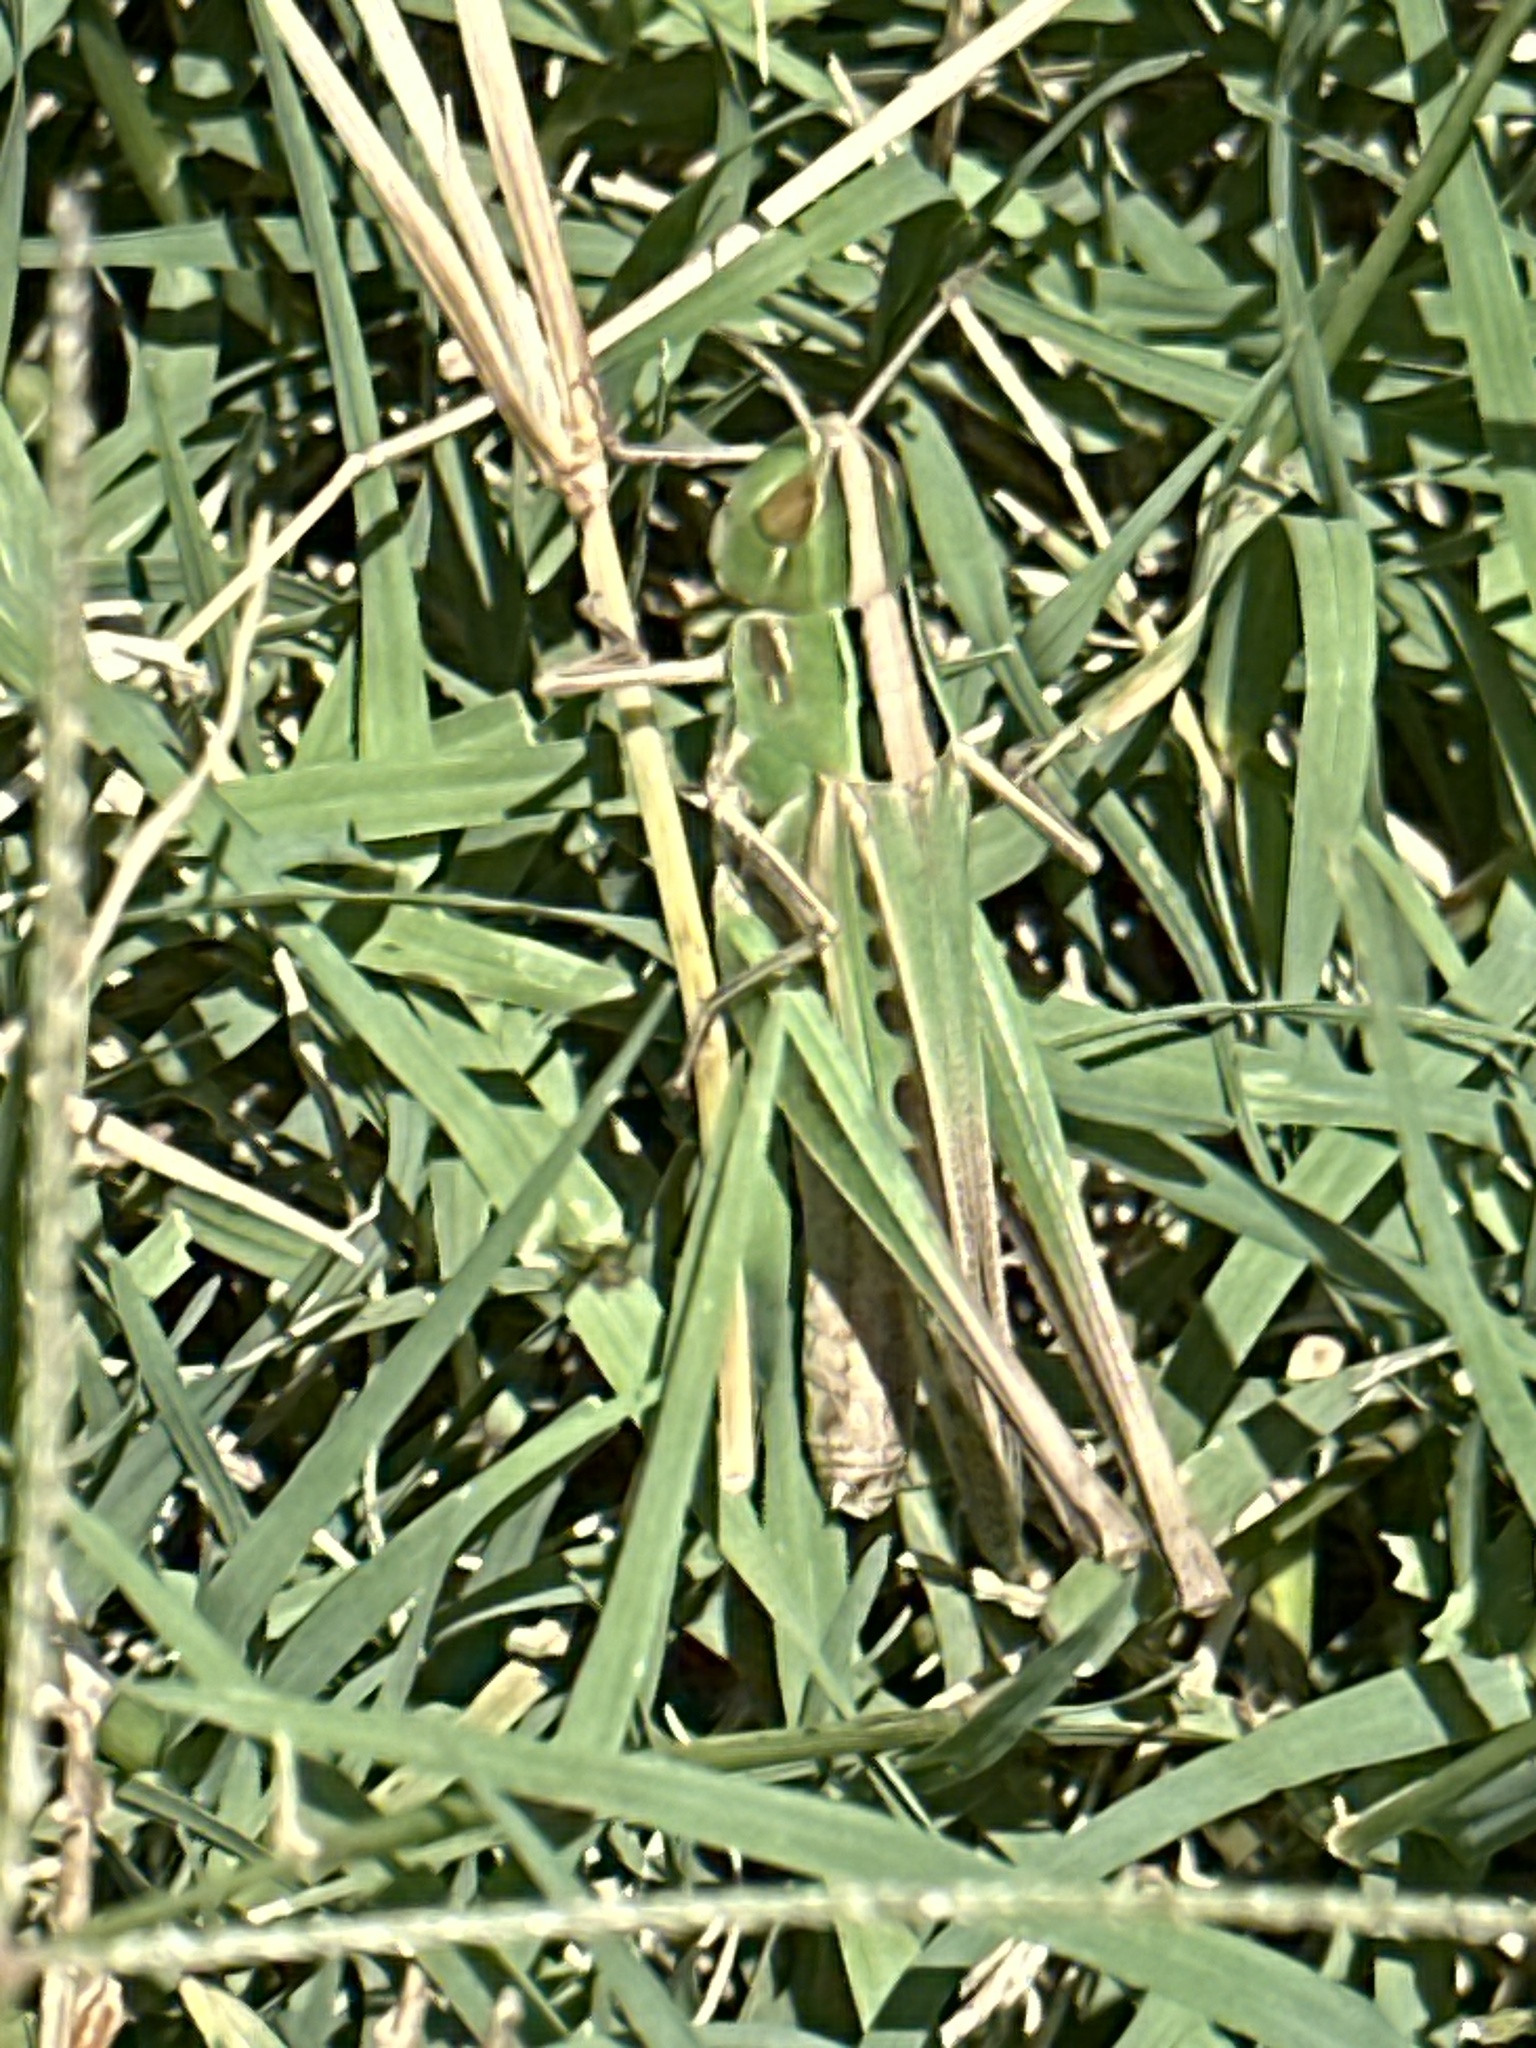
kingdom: Animalia
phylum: Arthropoda
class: Insecta
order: Orthoptera
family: Acrididae
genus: Syrbula
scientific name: Syrbula admirabilis
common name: Handsome grasshopper
